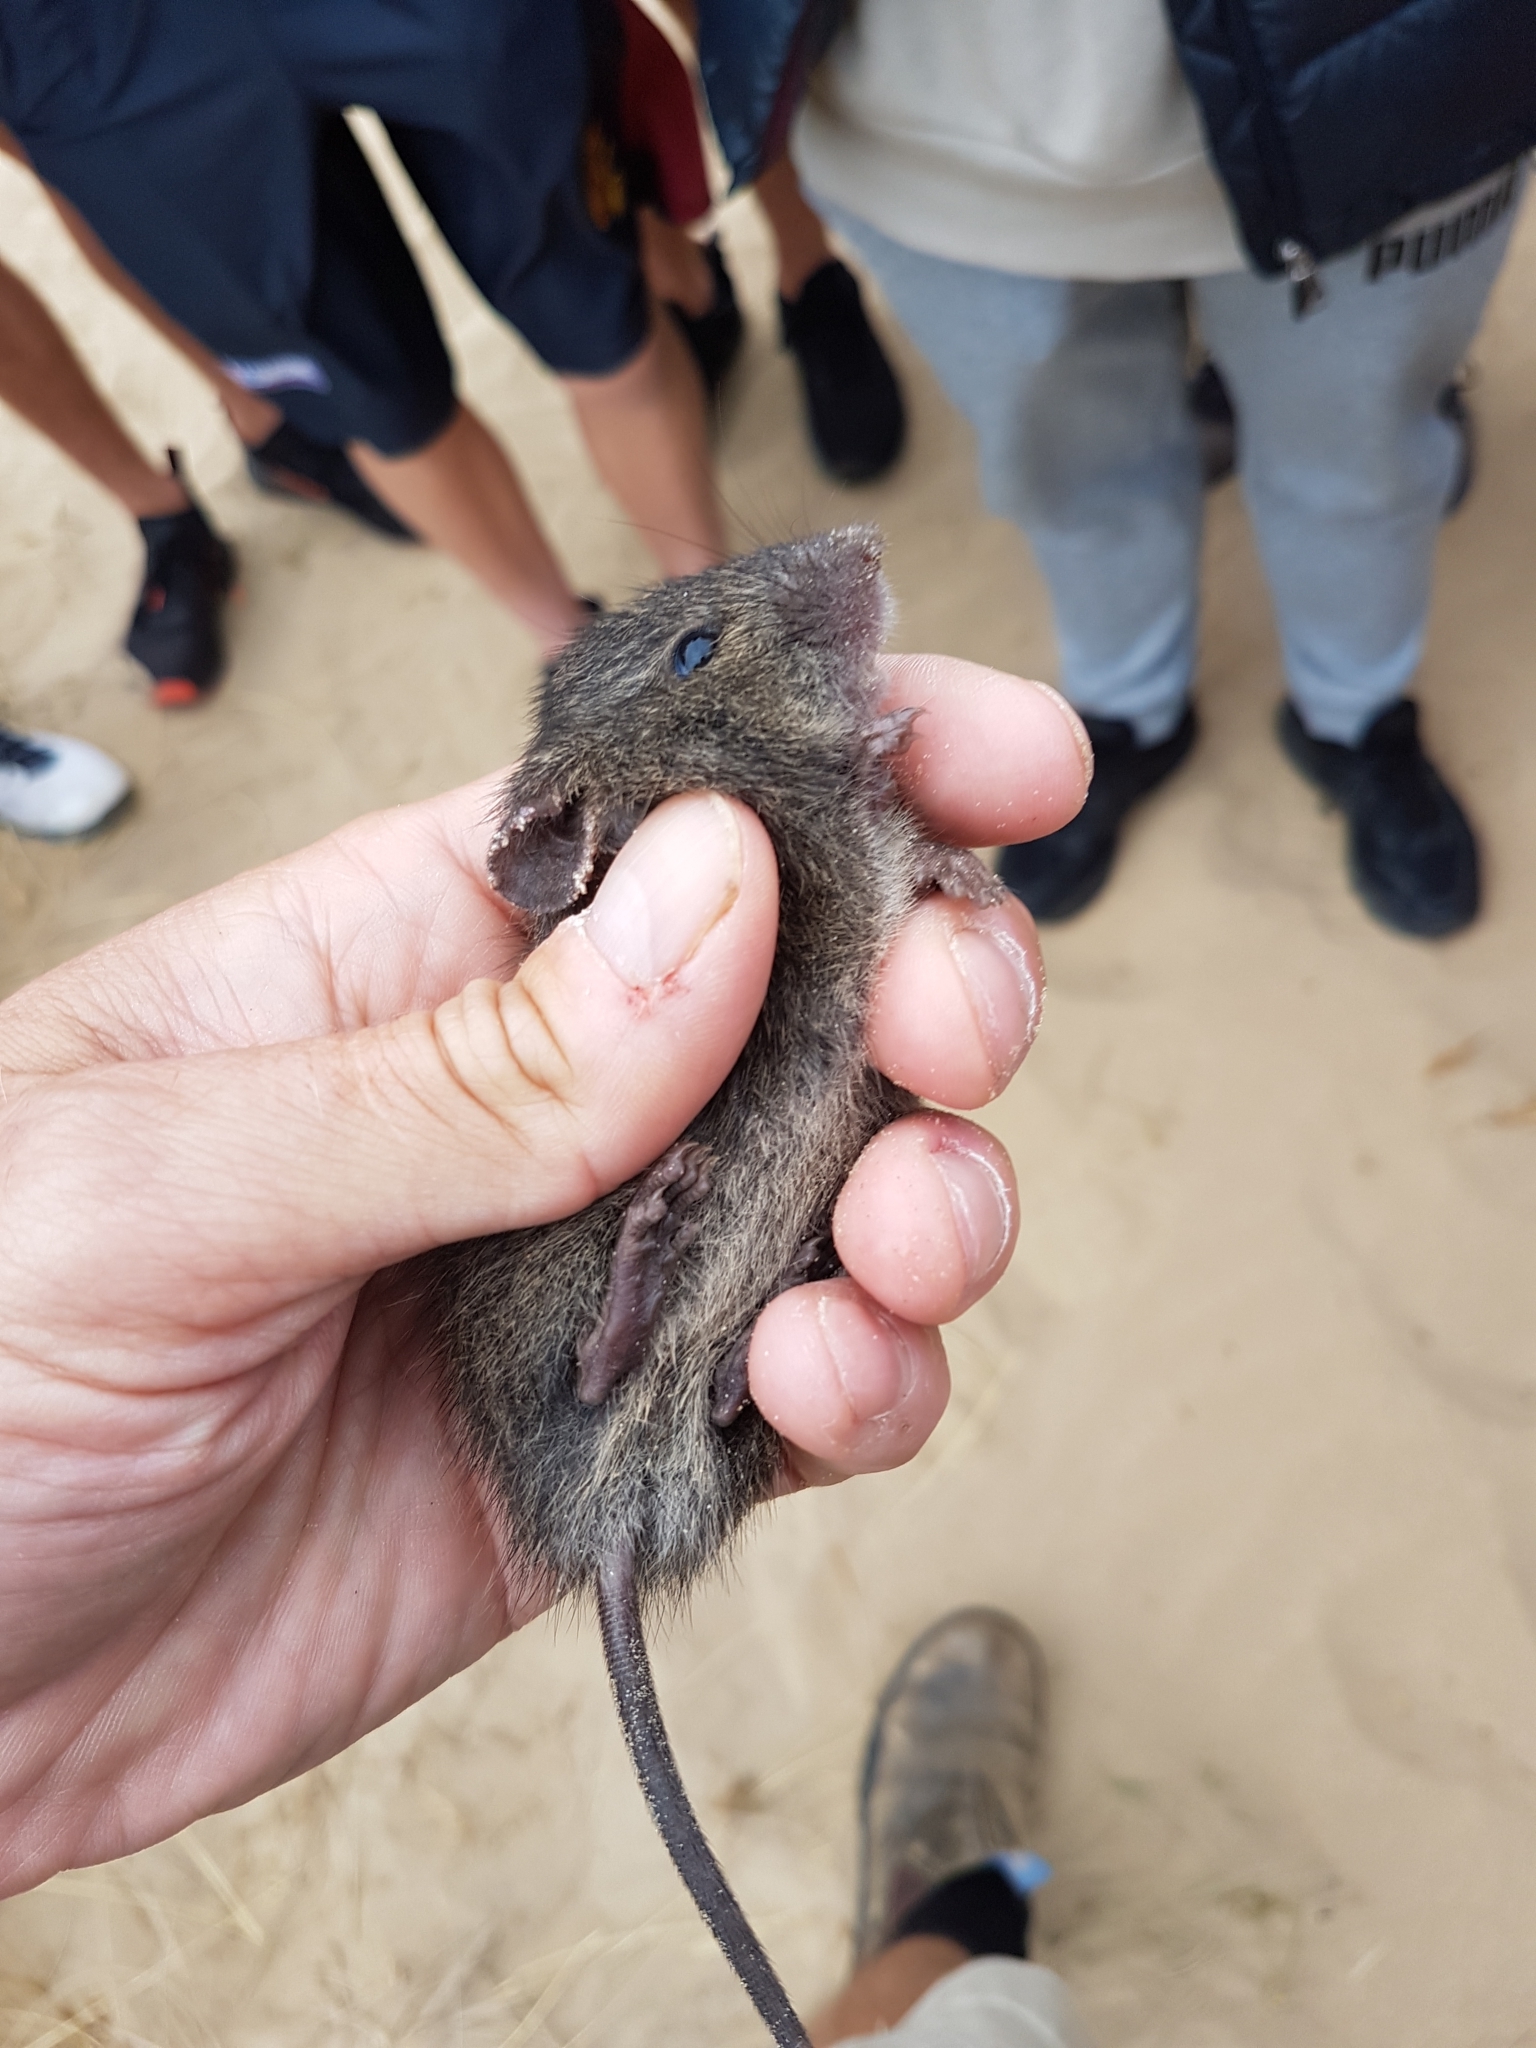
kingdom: Animalia
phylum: Chordata
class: Mammalia
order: Rodentia
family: Muridae
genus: Rattus
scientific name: Rattus lutreolus
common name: Australian swamp rat
